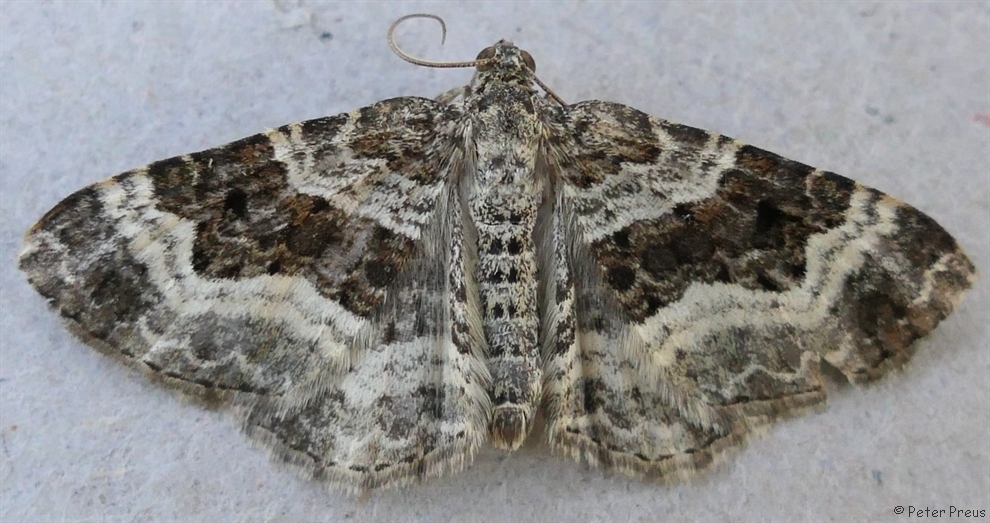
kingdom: Animalia
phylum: Arthropoda
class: Insecta
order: Lepidoptera
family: Geometridae
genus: Epirrhoe
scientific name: Epirrhoe alternata
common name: Common carpet
